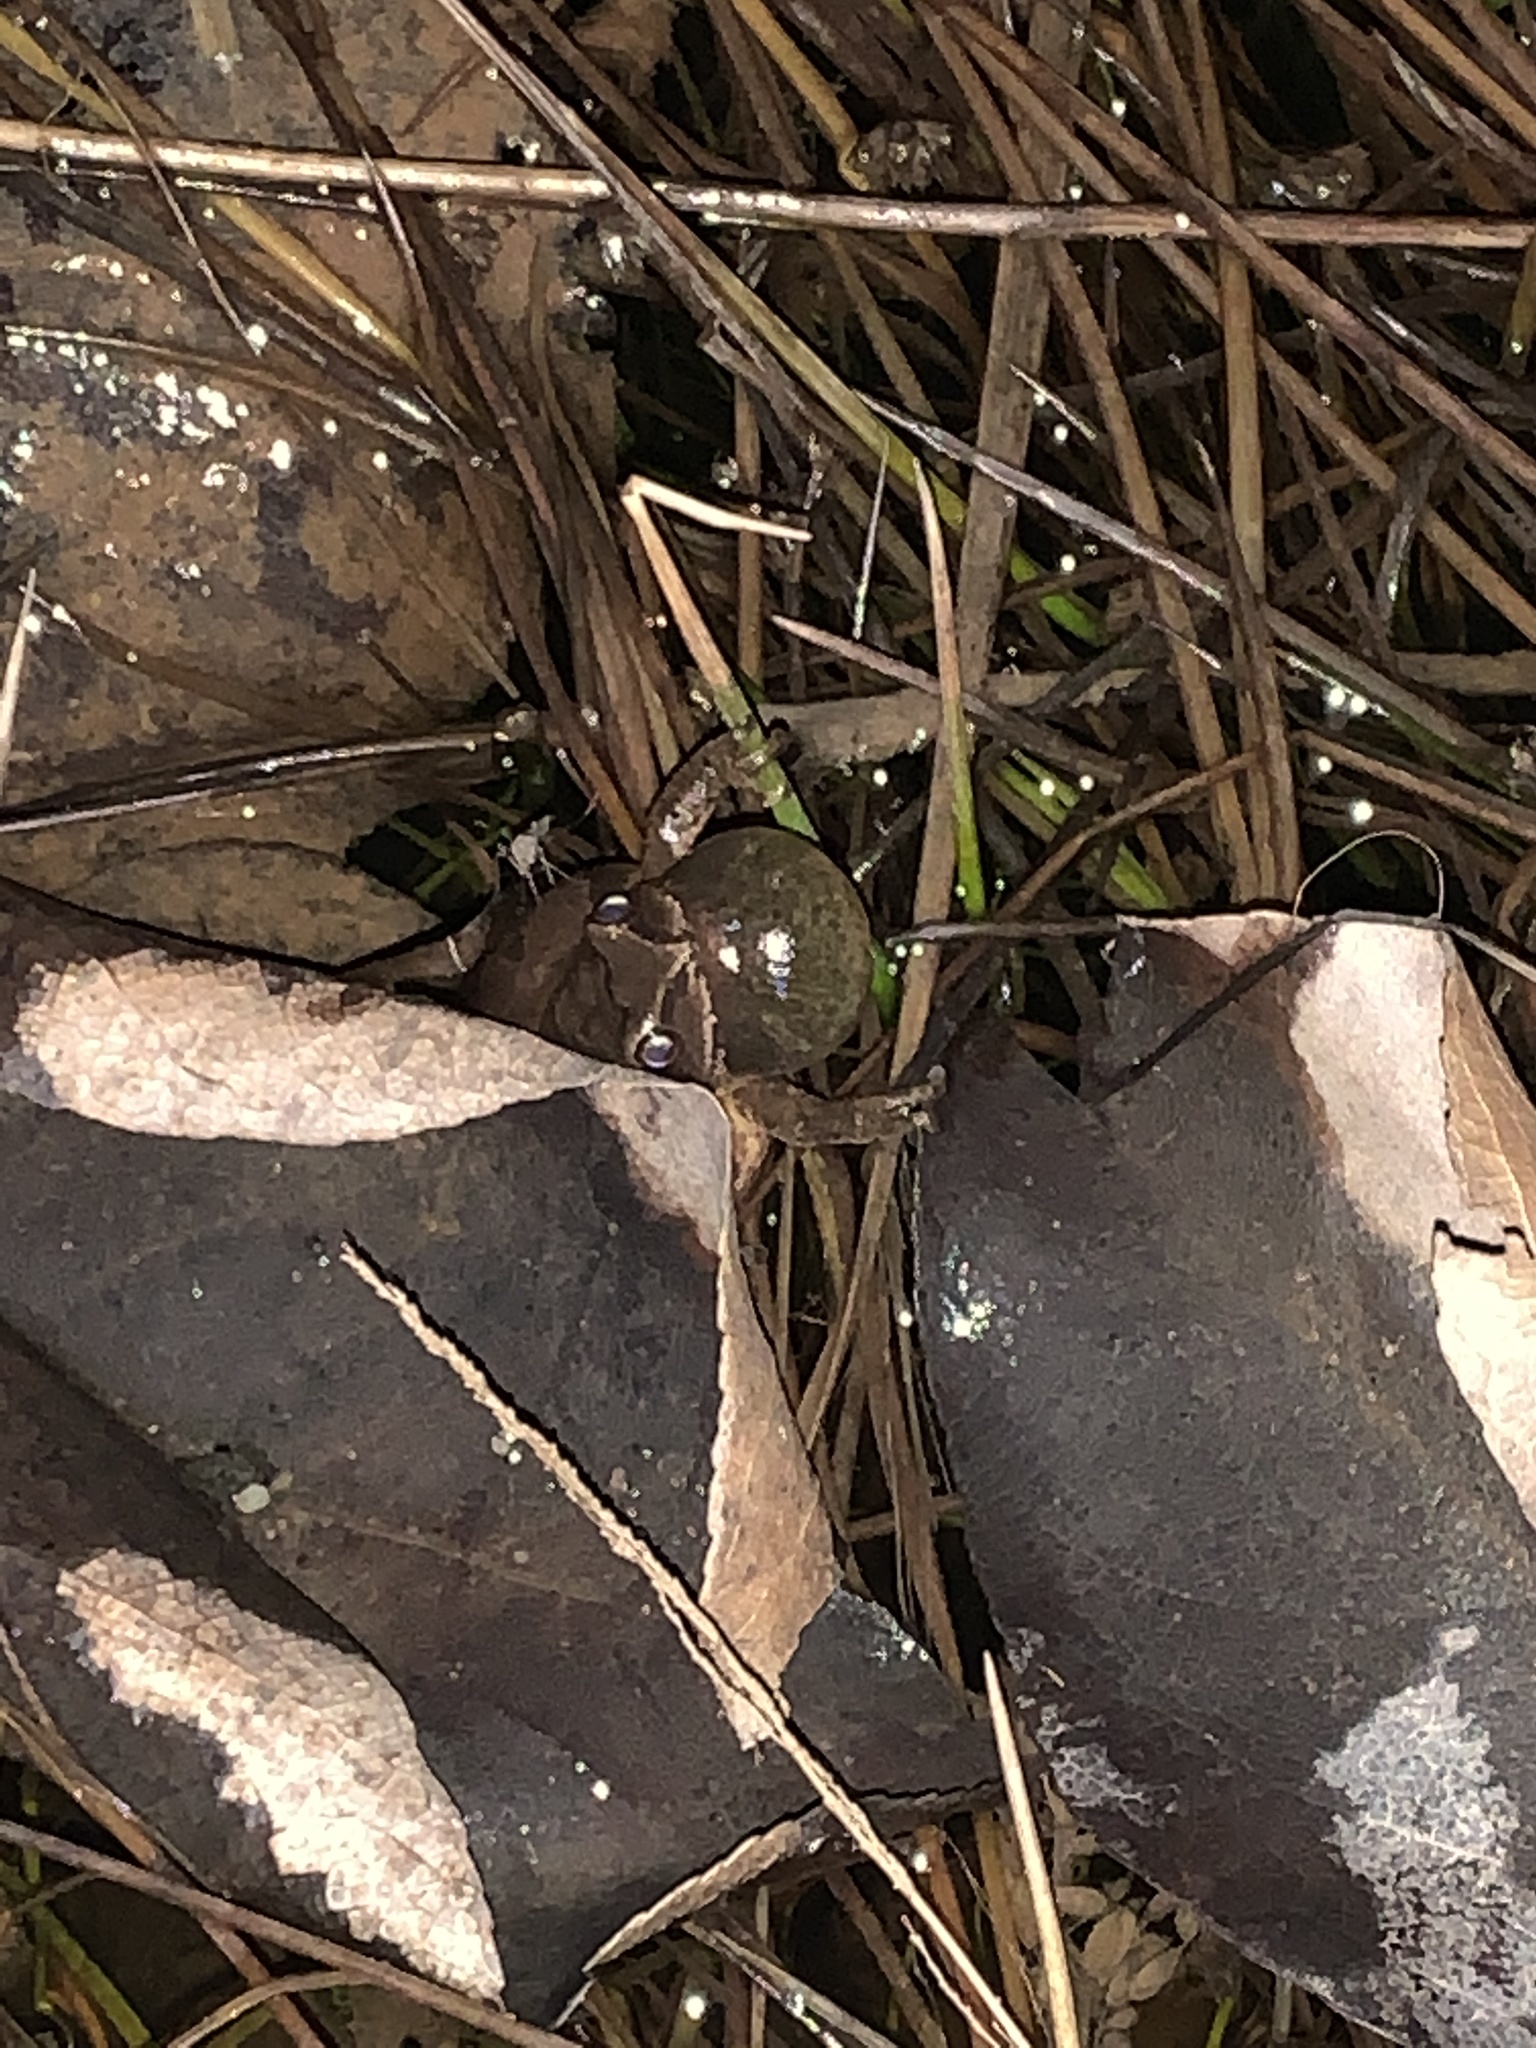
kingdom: Animalia
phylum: Chordata
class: Amphibia
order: Anura
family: Hylidae
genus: Pseudacris
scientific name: Pseudacris crucifer
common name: Spring peeper
